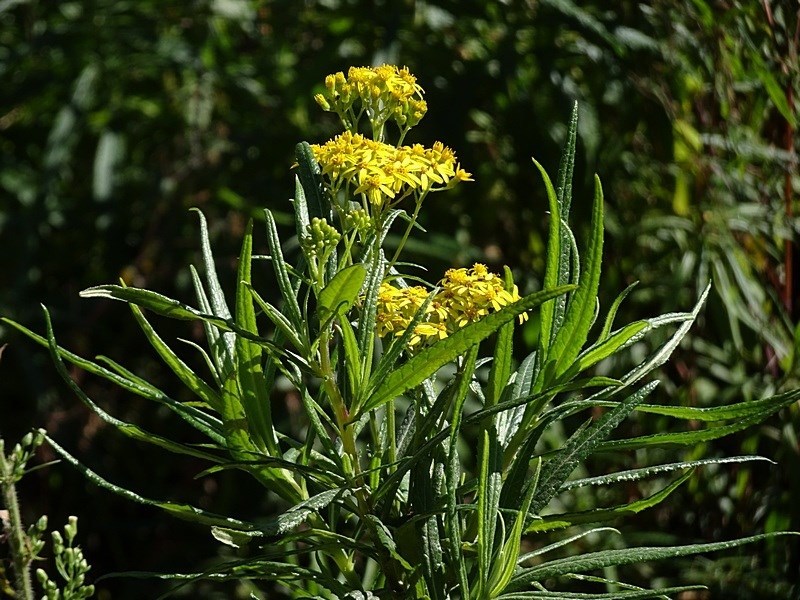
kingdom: Plantae
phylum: Tracheophyta
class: Magnoliopsida
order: Asterales
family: Asteraceae
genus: Senecio
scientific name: Senecio linearifolius
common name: Fireweed groundsel
